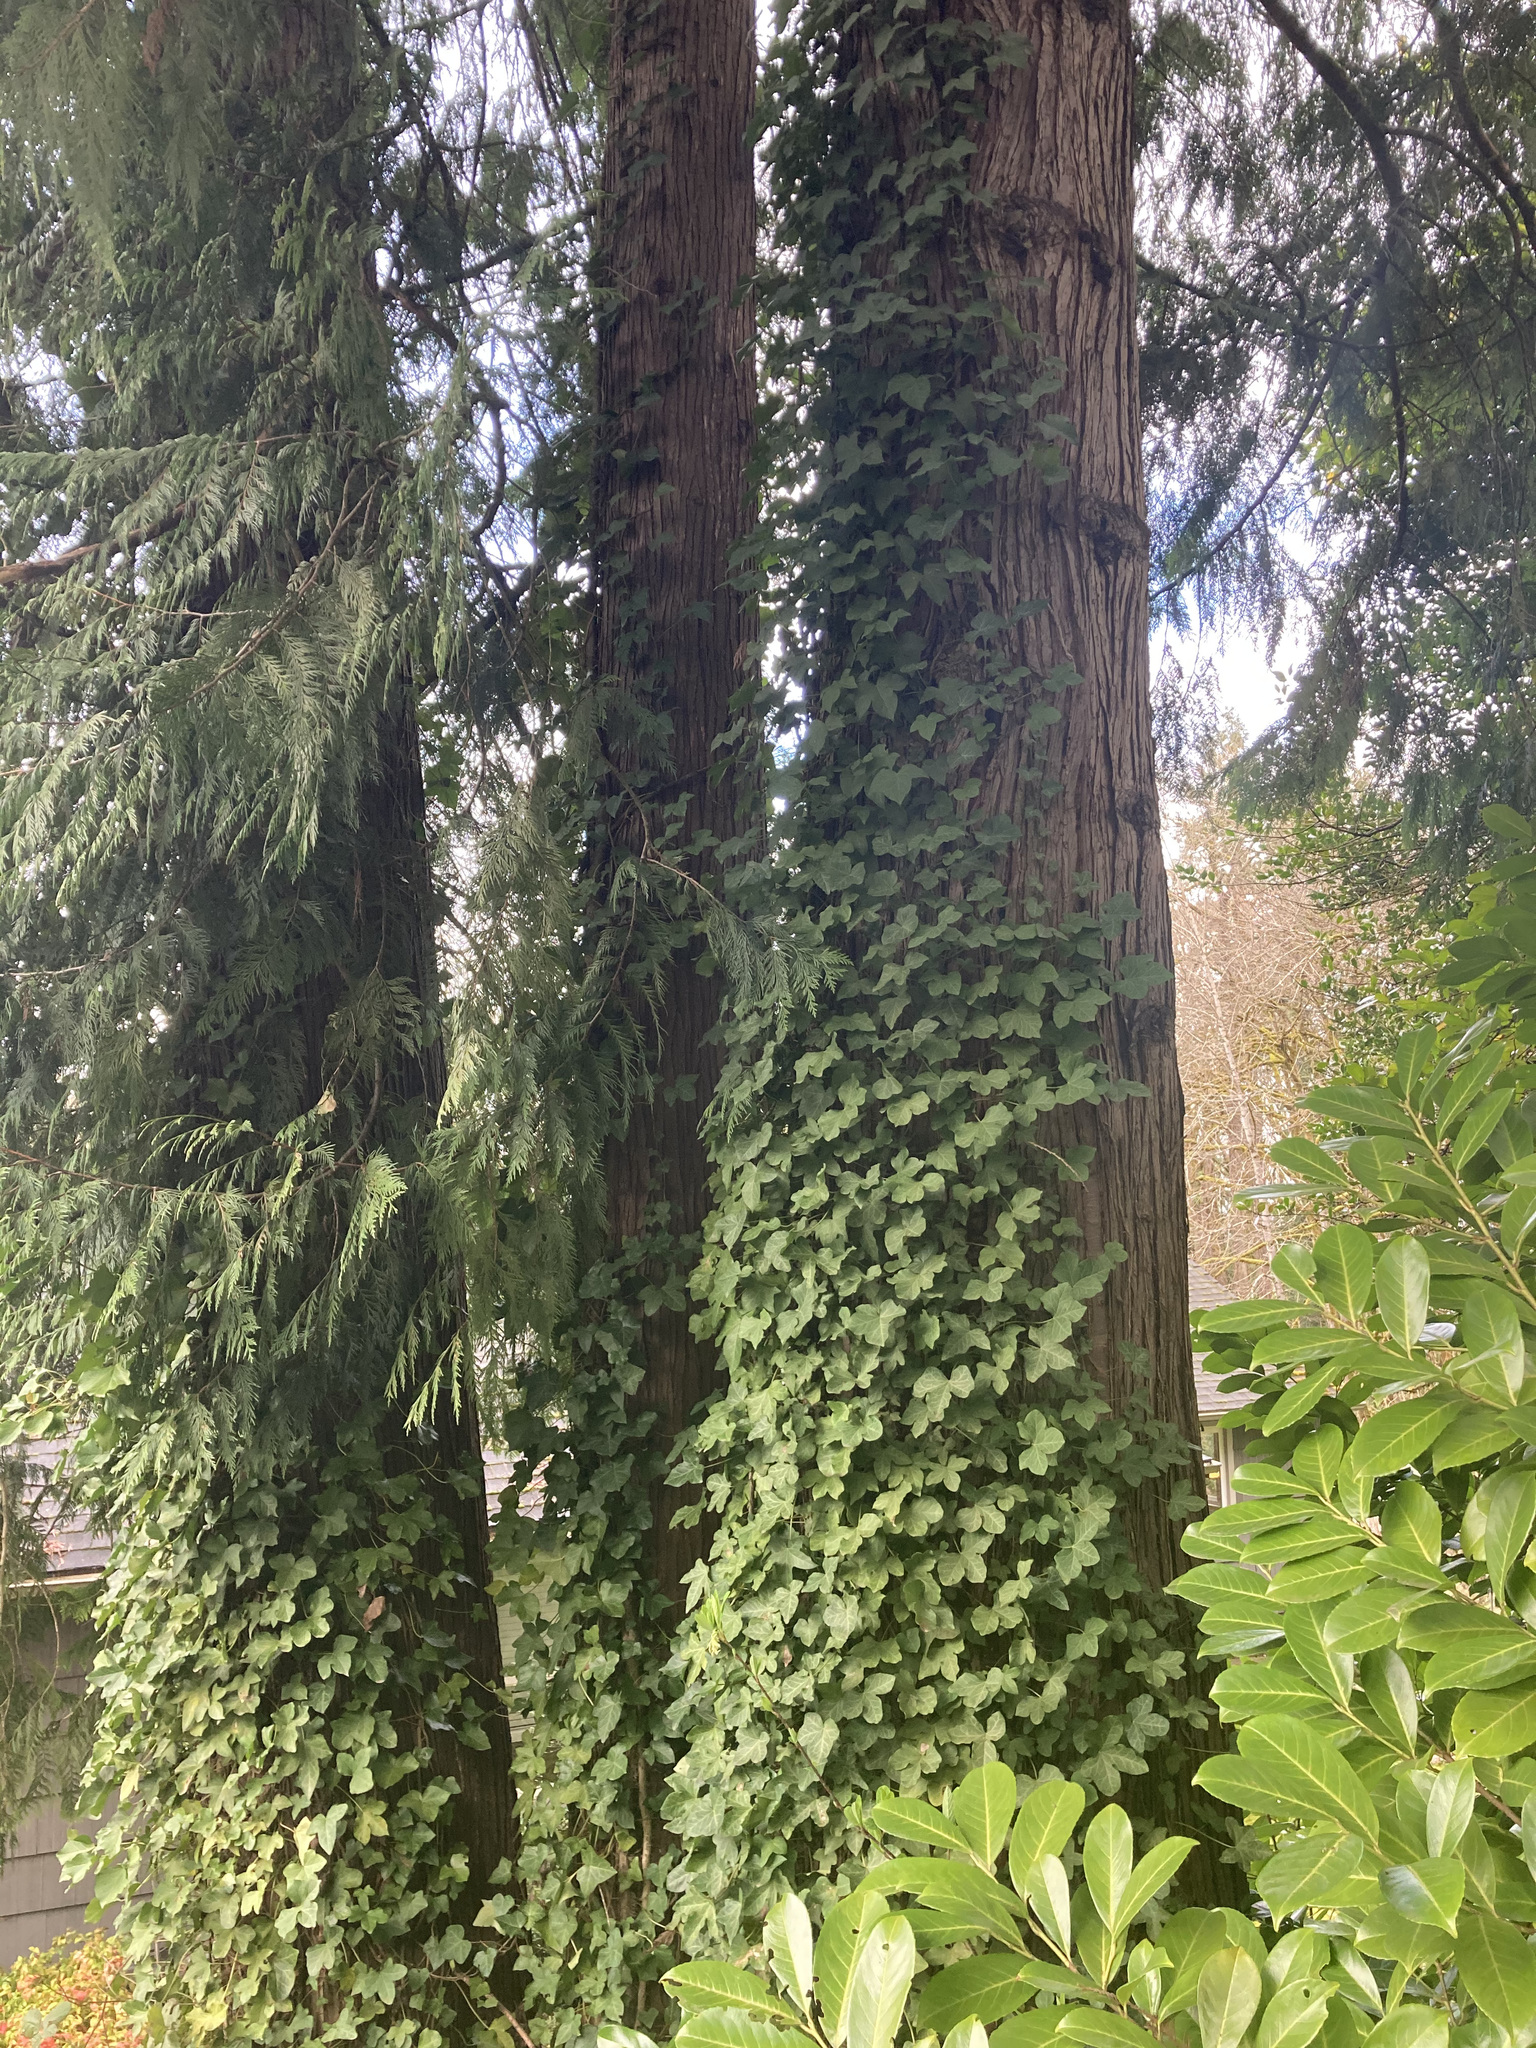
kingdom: Plantae
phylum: Tracheophyta
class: Pinopsida
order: Pinales
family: Cupressaceae
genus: Thuja
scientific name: Thuja plicata
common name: Western red-cedar
